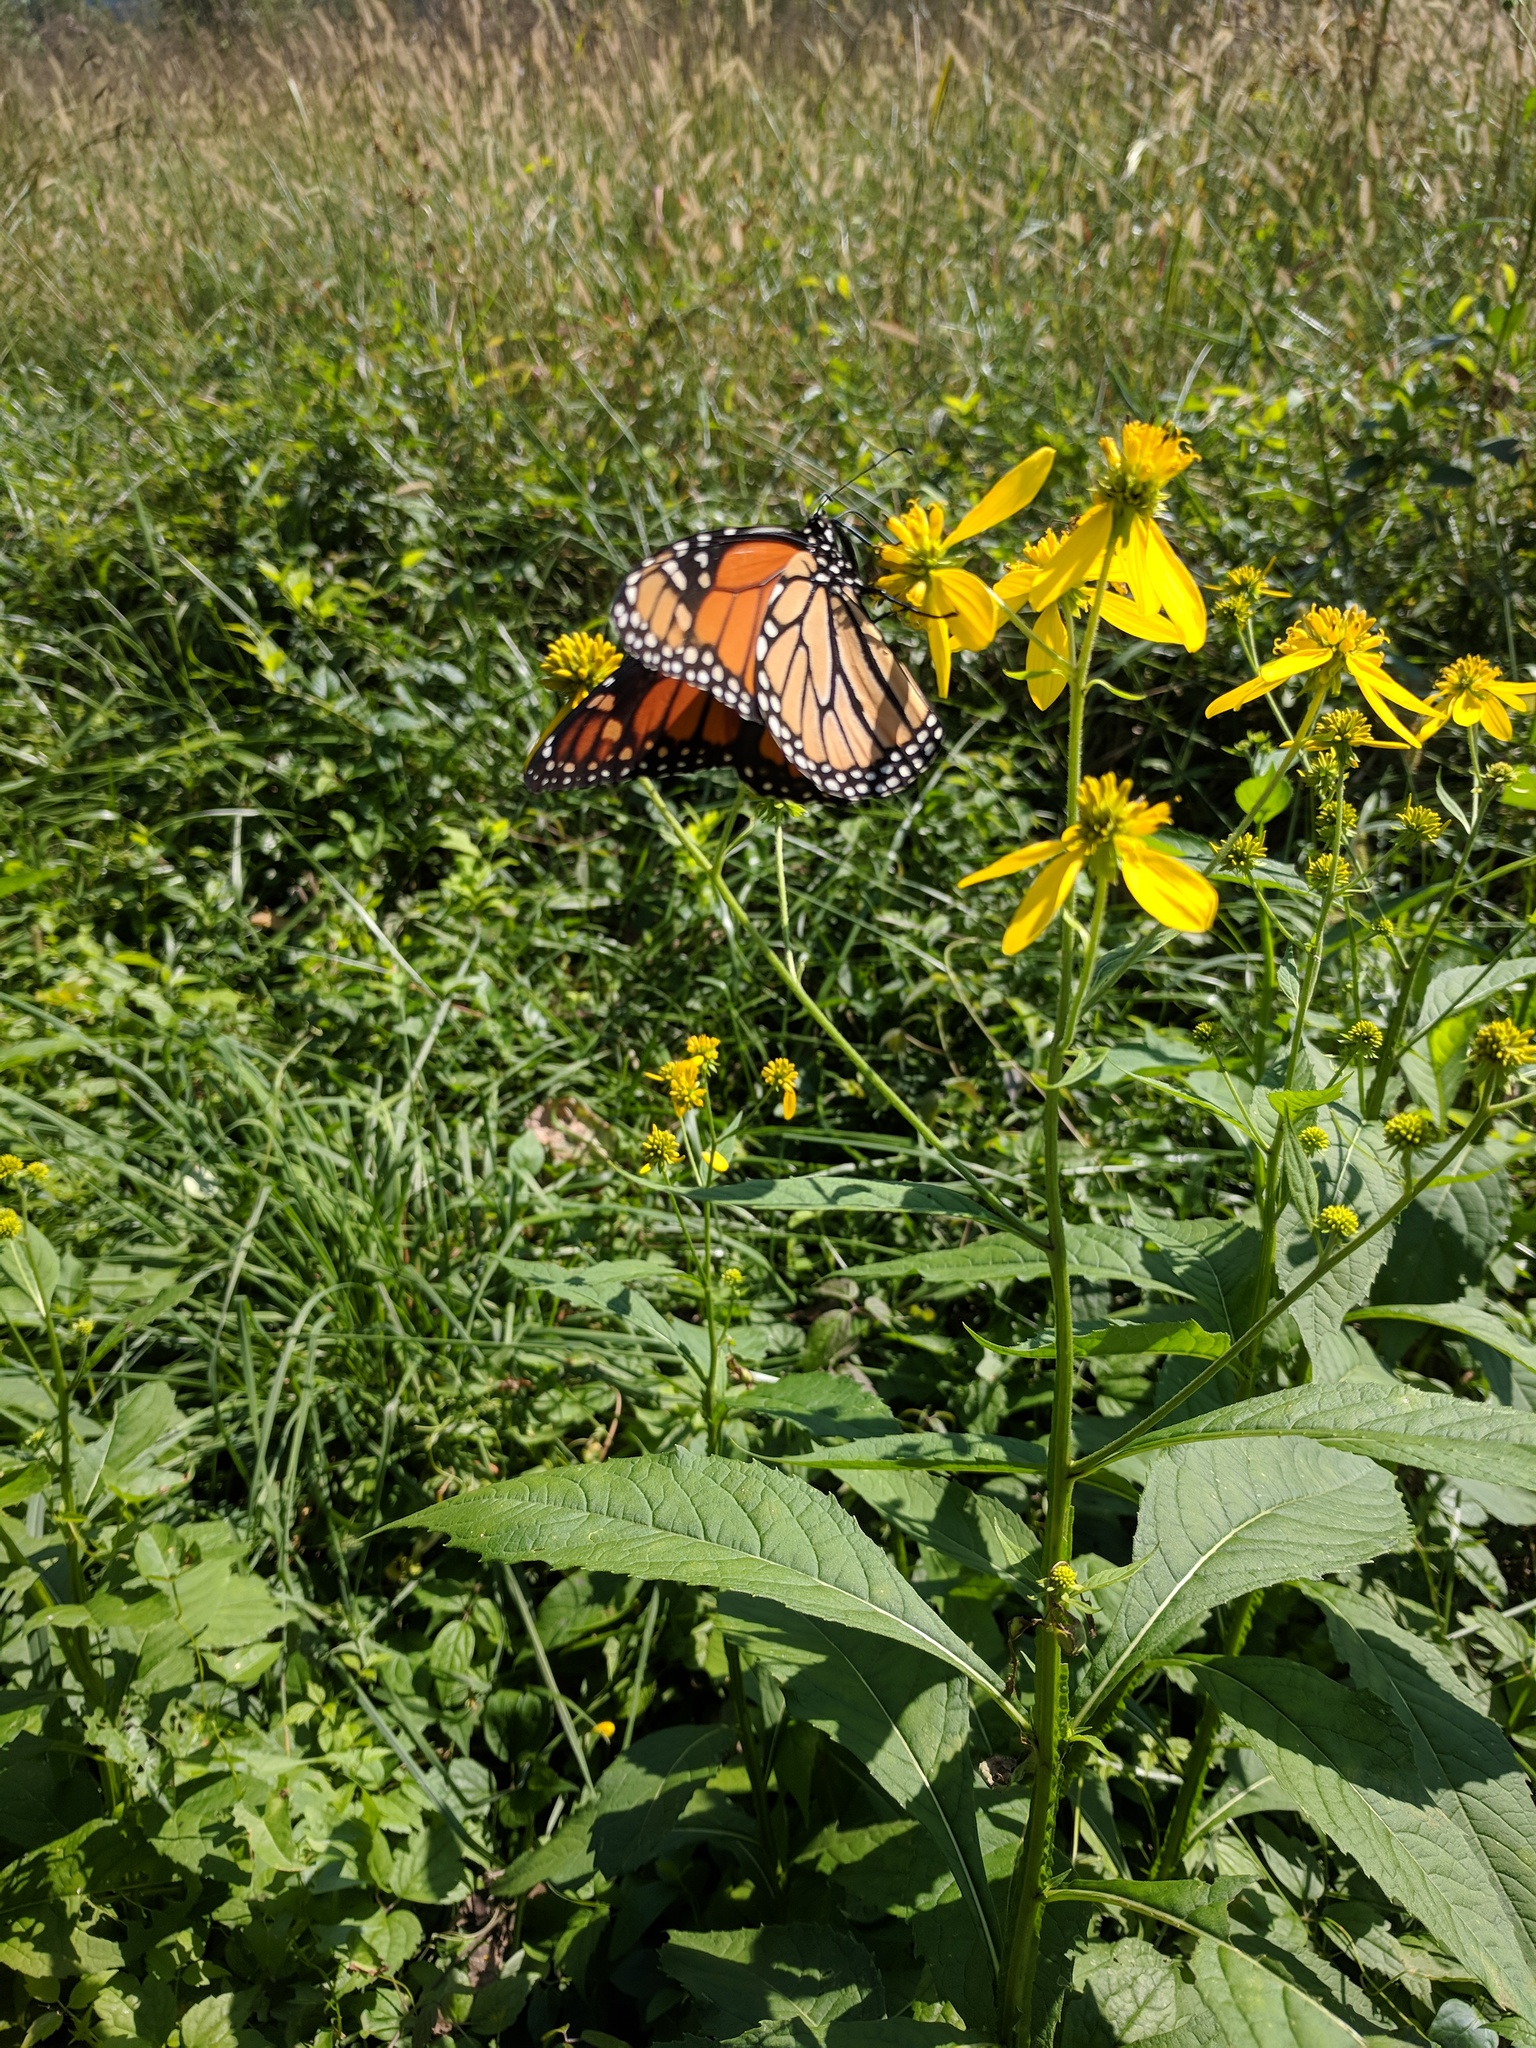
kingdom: Animalia
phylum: Arthropoda
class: Insecta
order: Lepidoptera
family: Nymphalidae
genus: Danaus
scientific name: Danaus plexippus
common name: Monarch
